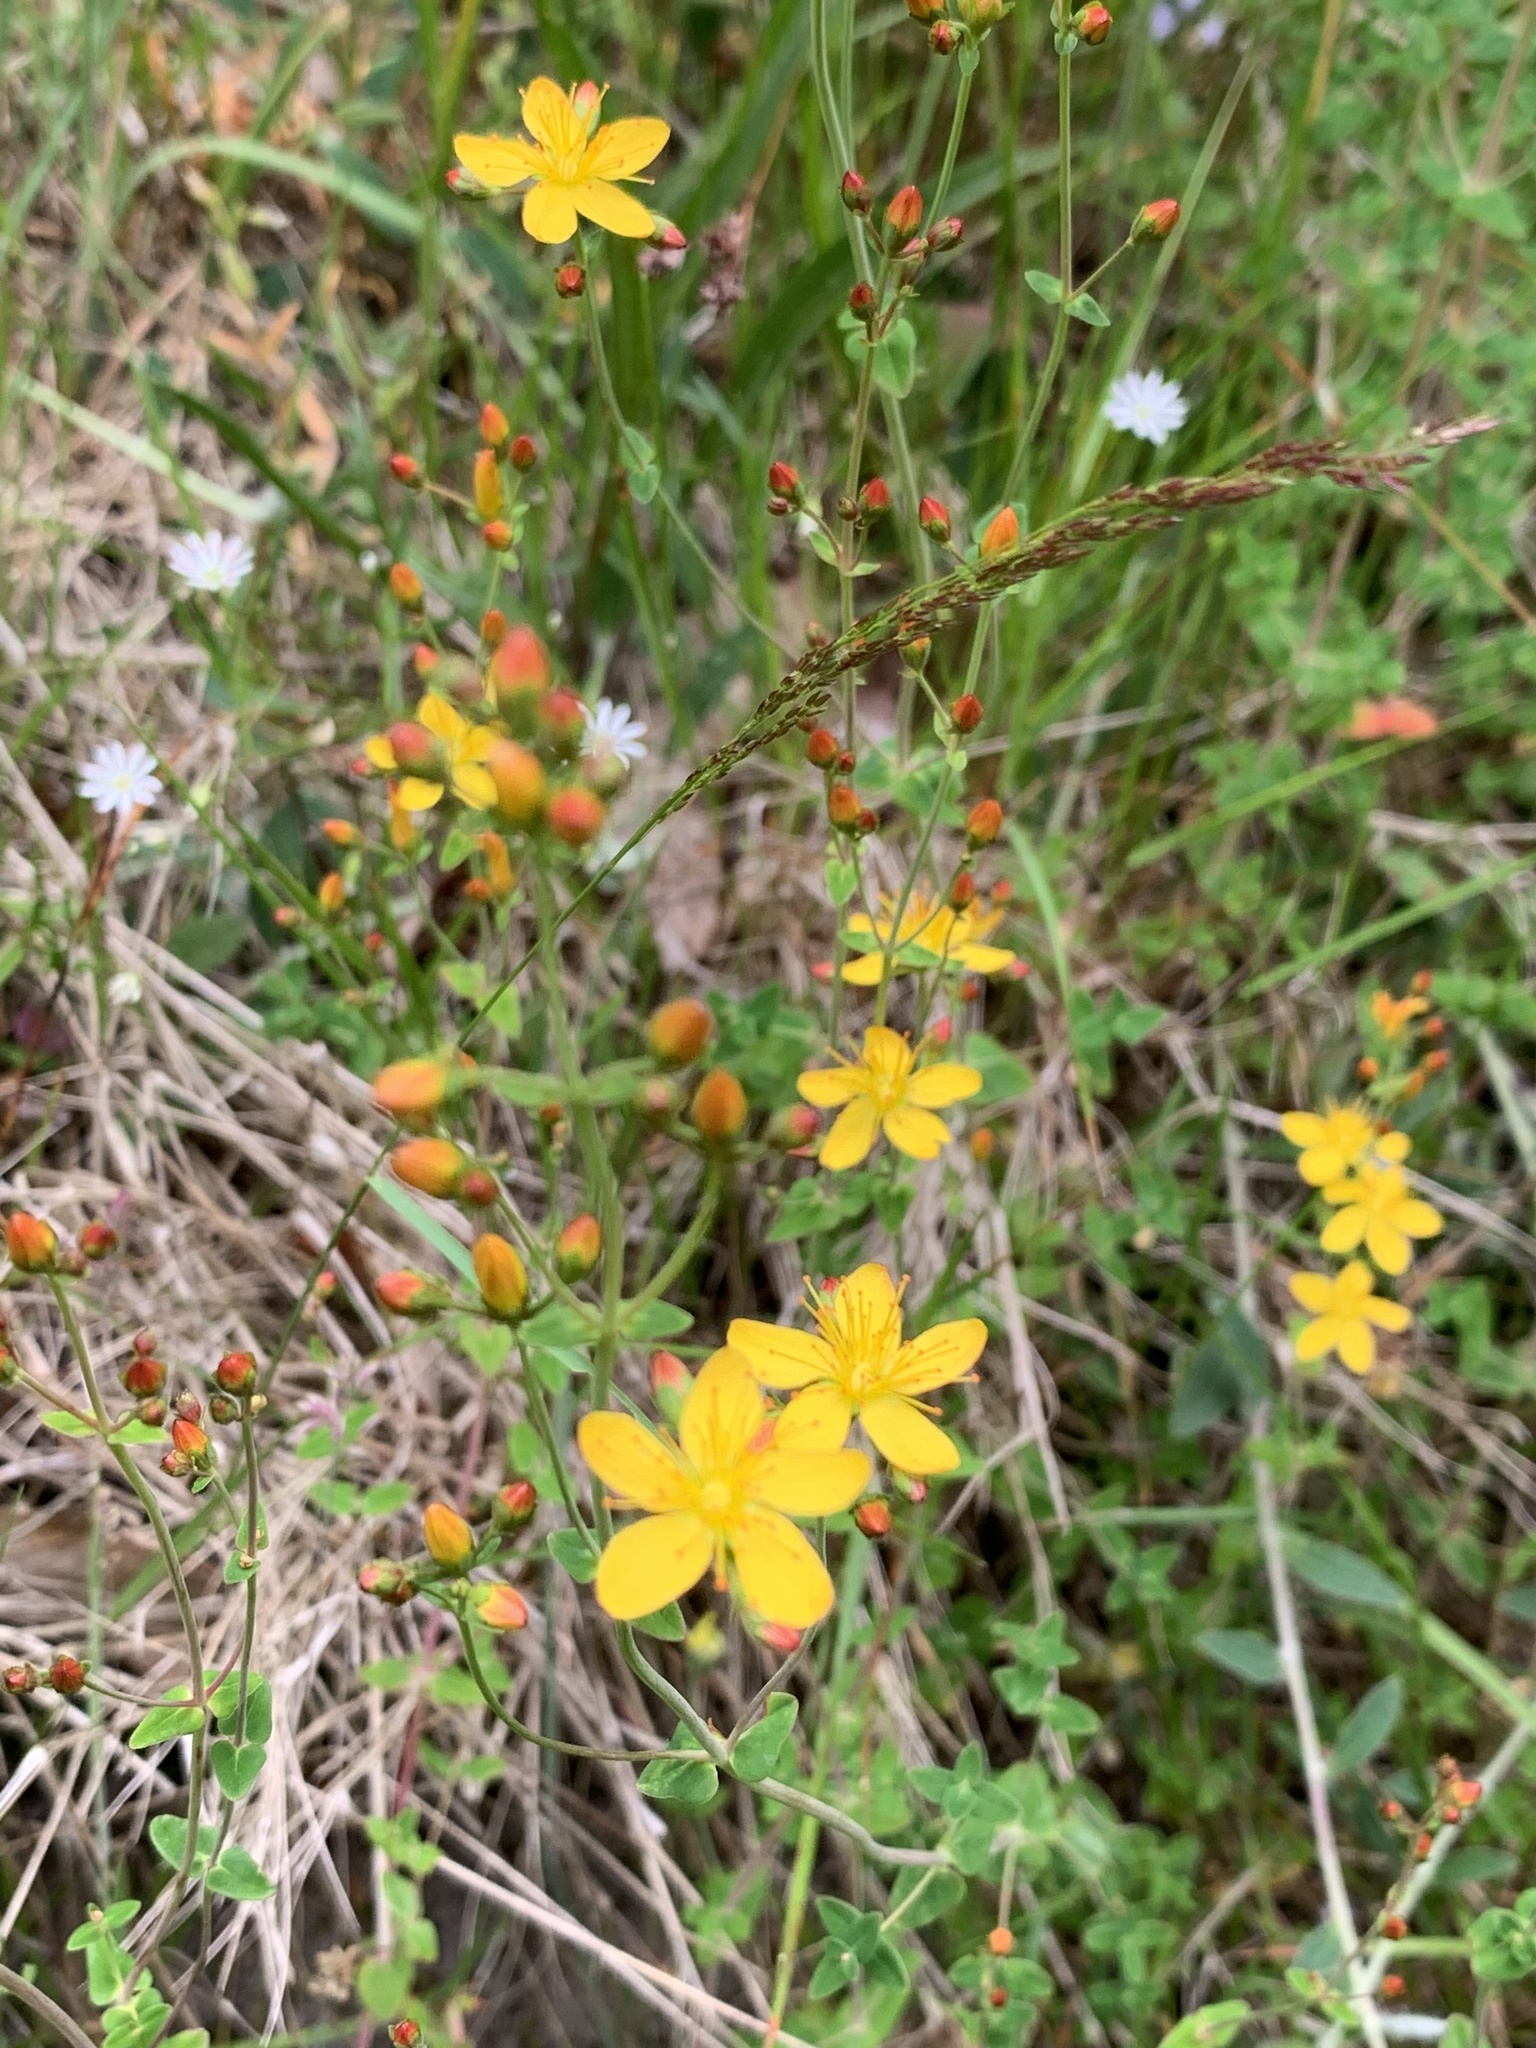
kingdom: Plantae
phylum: Tracheophyta
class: Magnoliopsida
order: Malpighiales
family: Hypericaceae
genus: Hypericum
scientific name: Hypericum pulchrum
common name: Slender st. john's-wort
